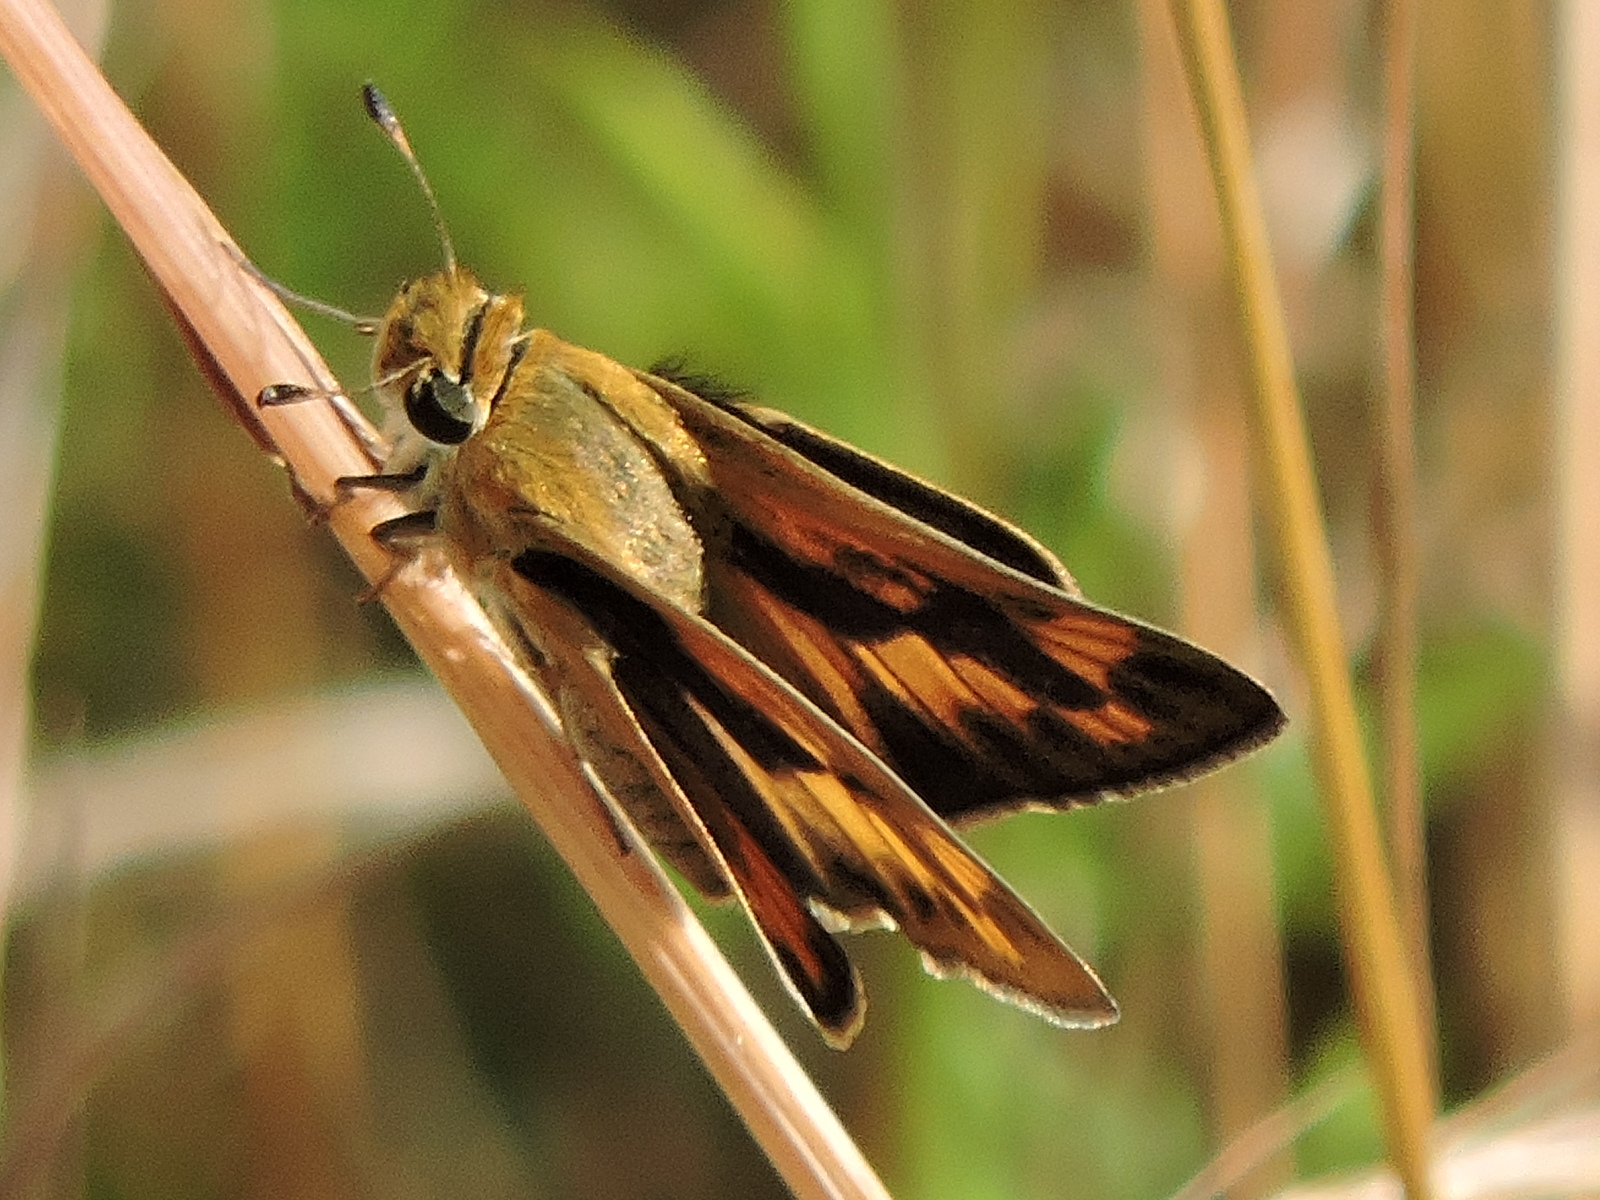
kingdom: Animalia
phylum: Arthropoda
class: Insecta
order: Lepidoptera
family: Hesperiidae
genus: Hylephila
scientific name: Hylephila phyleus
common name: Fiery skipper
